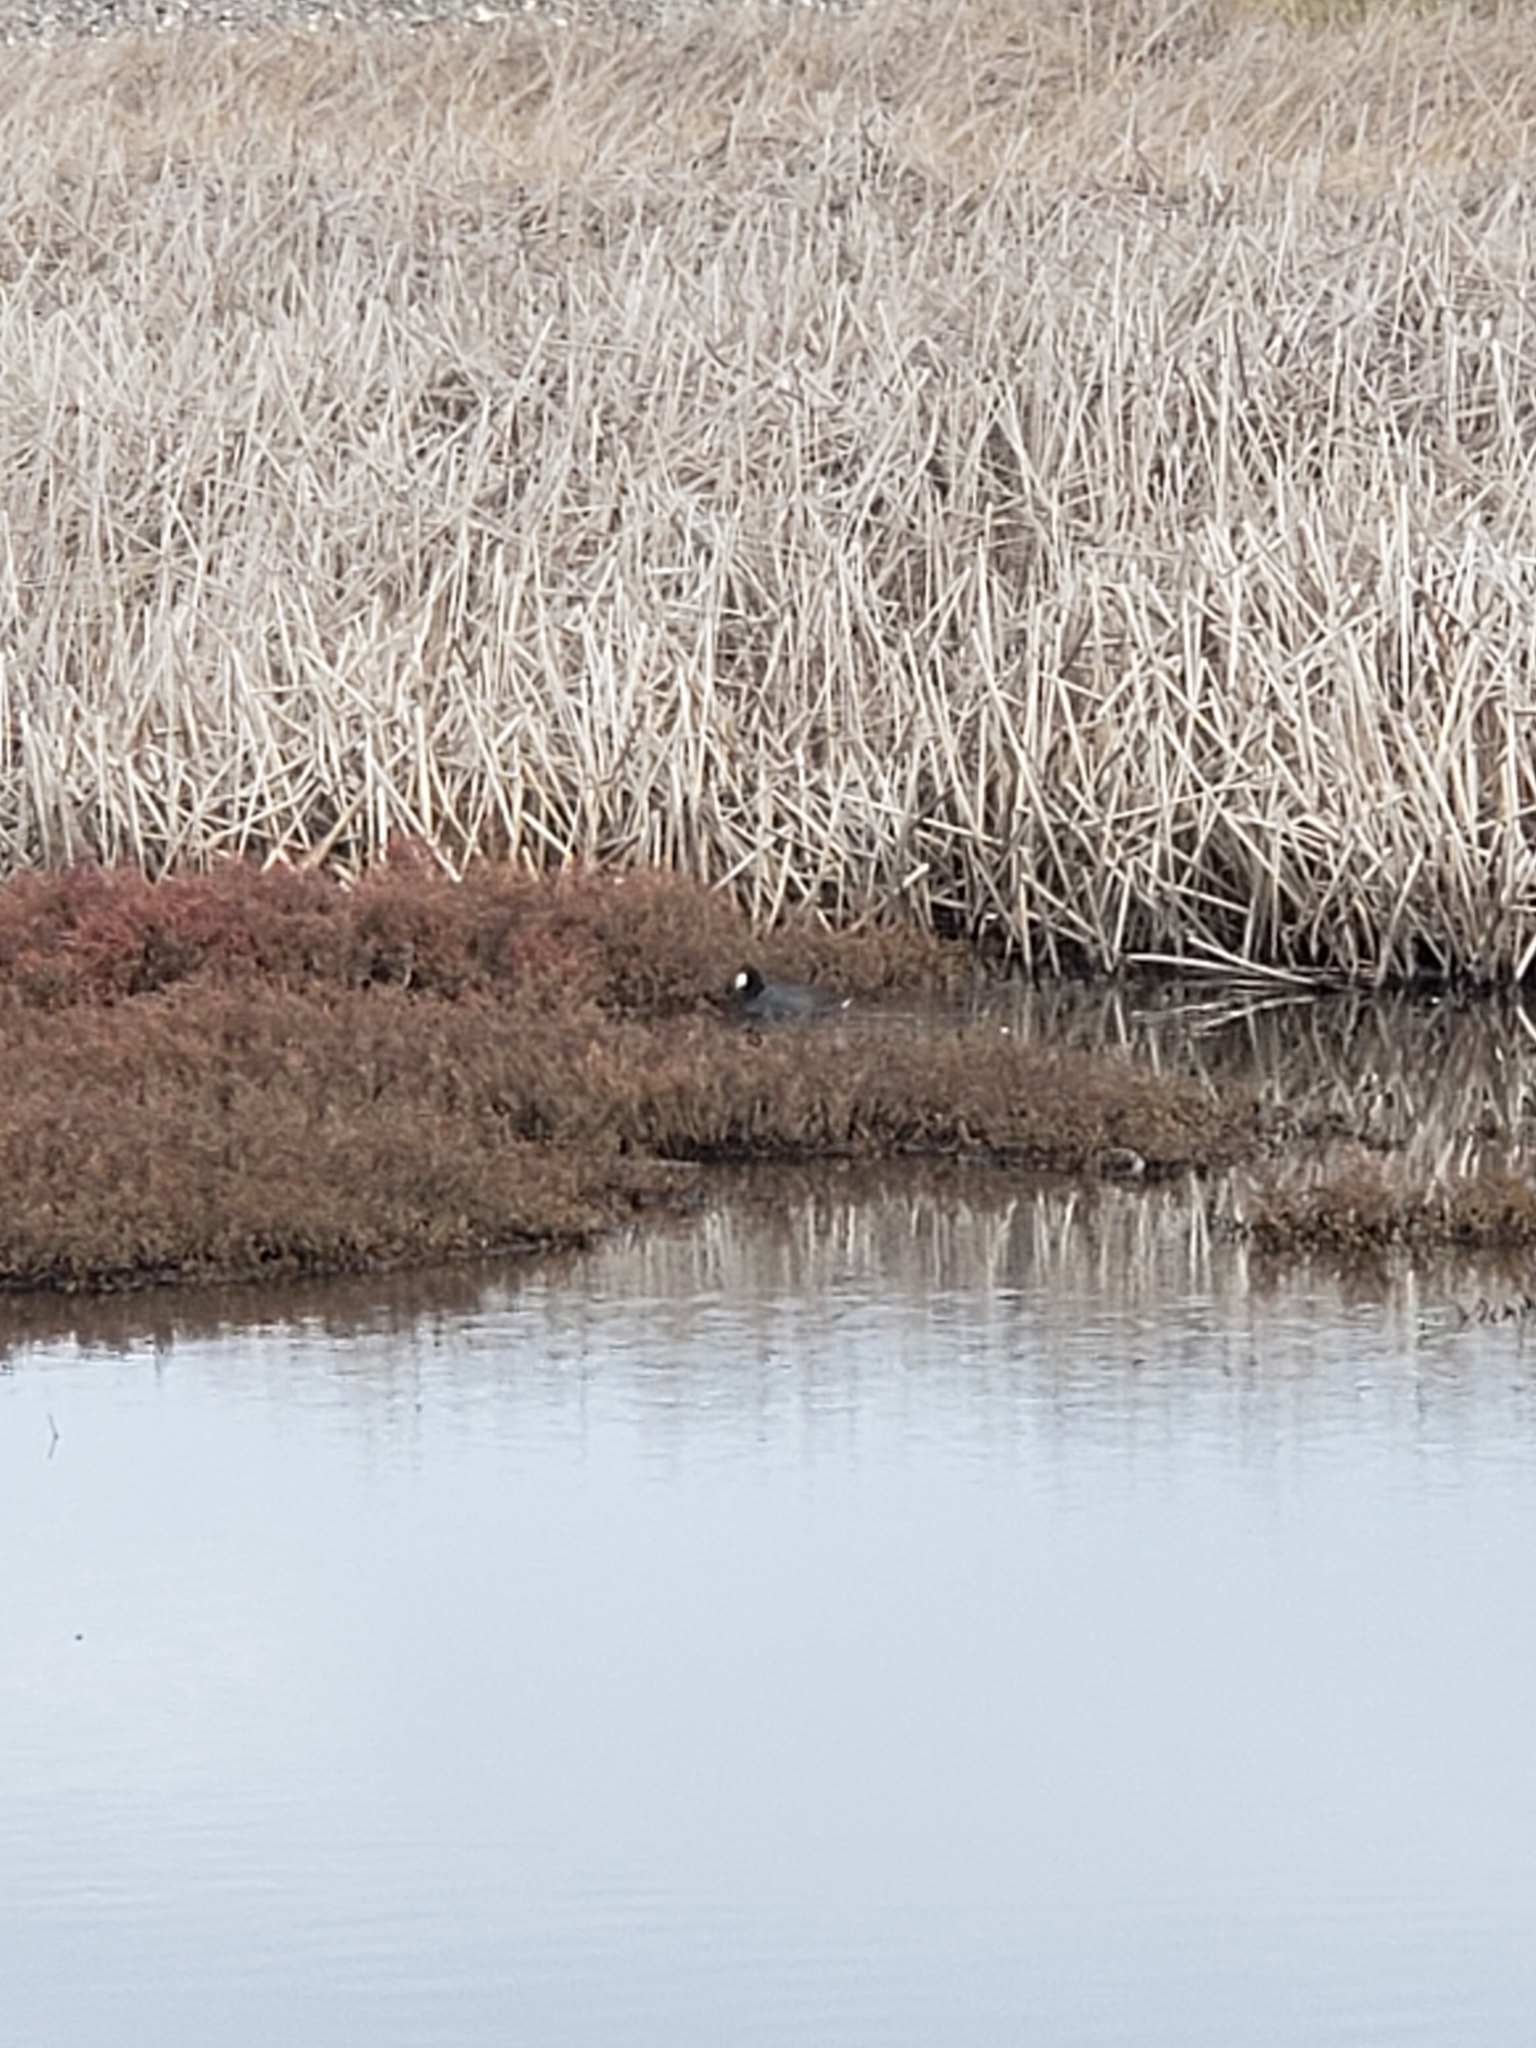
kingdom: Animalia
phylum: Chordata
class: Aves
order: Gruiformes
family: Rallidae
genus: Fulica
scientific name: Fulica americana
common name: American coot
